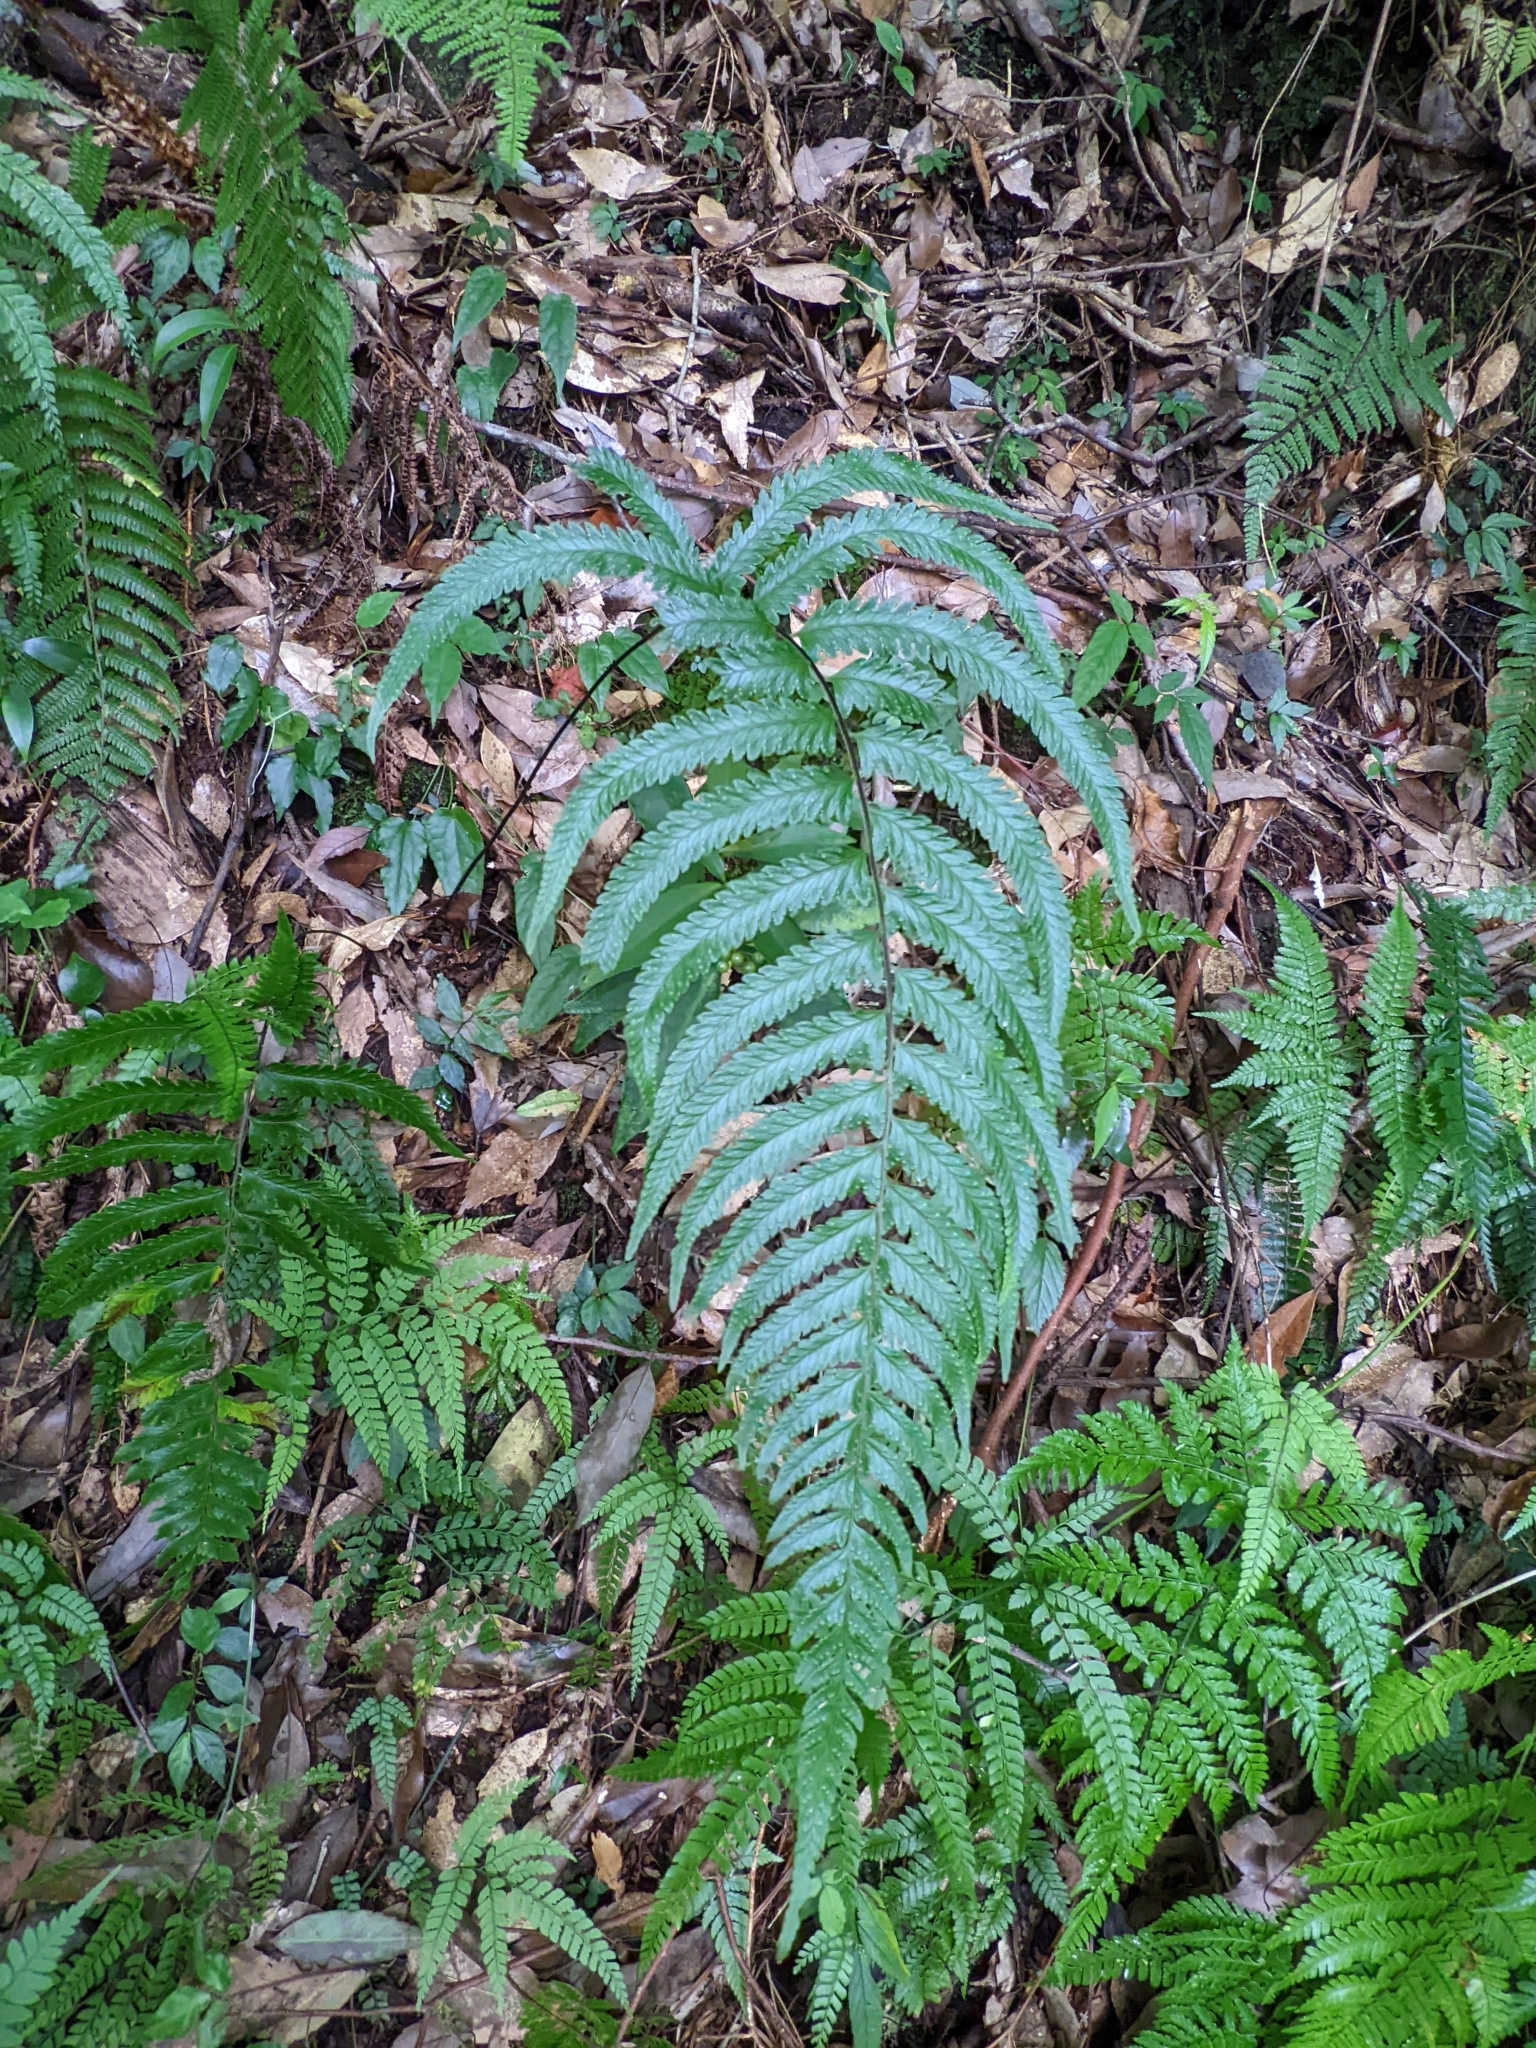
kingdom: Plantae
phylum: Tracheophyta
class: Polypodiopsida
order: Polypodiales
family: Dennstaedtiaceae
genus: Microlepia
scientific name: Microlepia marginata
